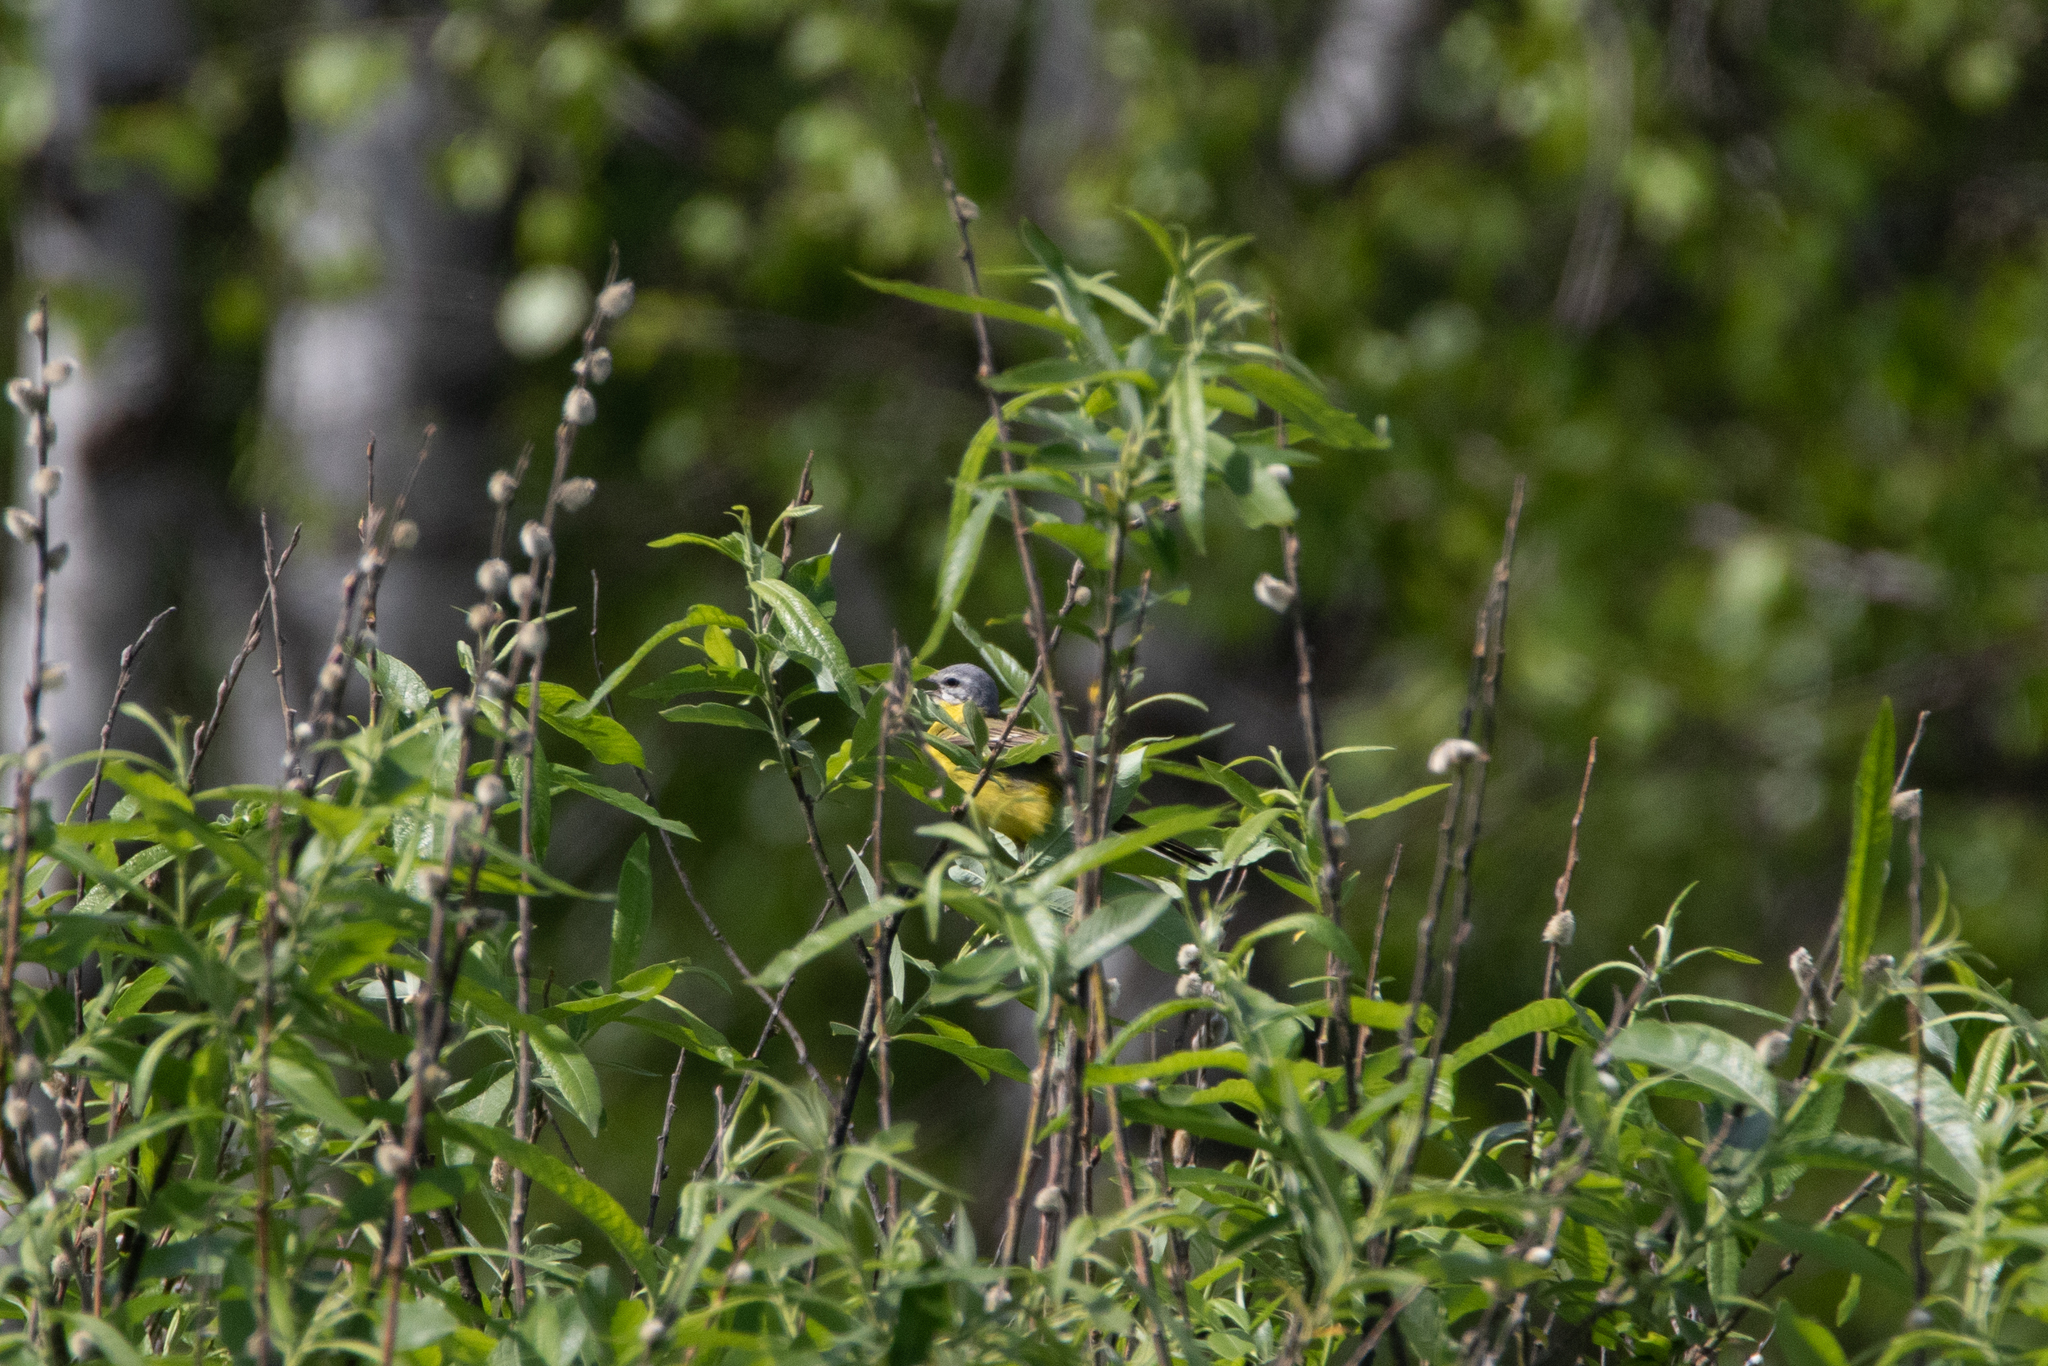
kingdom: Animalia
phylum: Chordata
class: Aves
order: Passeriformes
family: Motacillidae
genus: Motacilla
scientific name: Motacilla flava
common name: Western yellow wagtail
